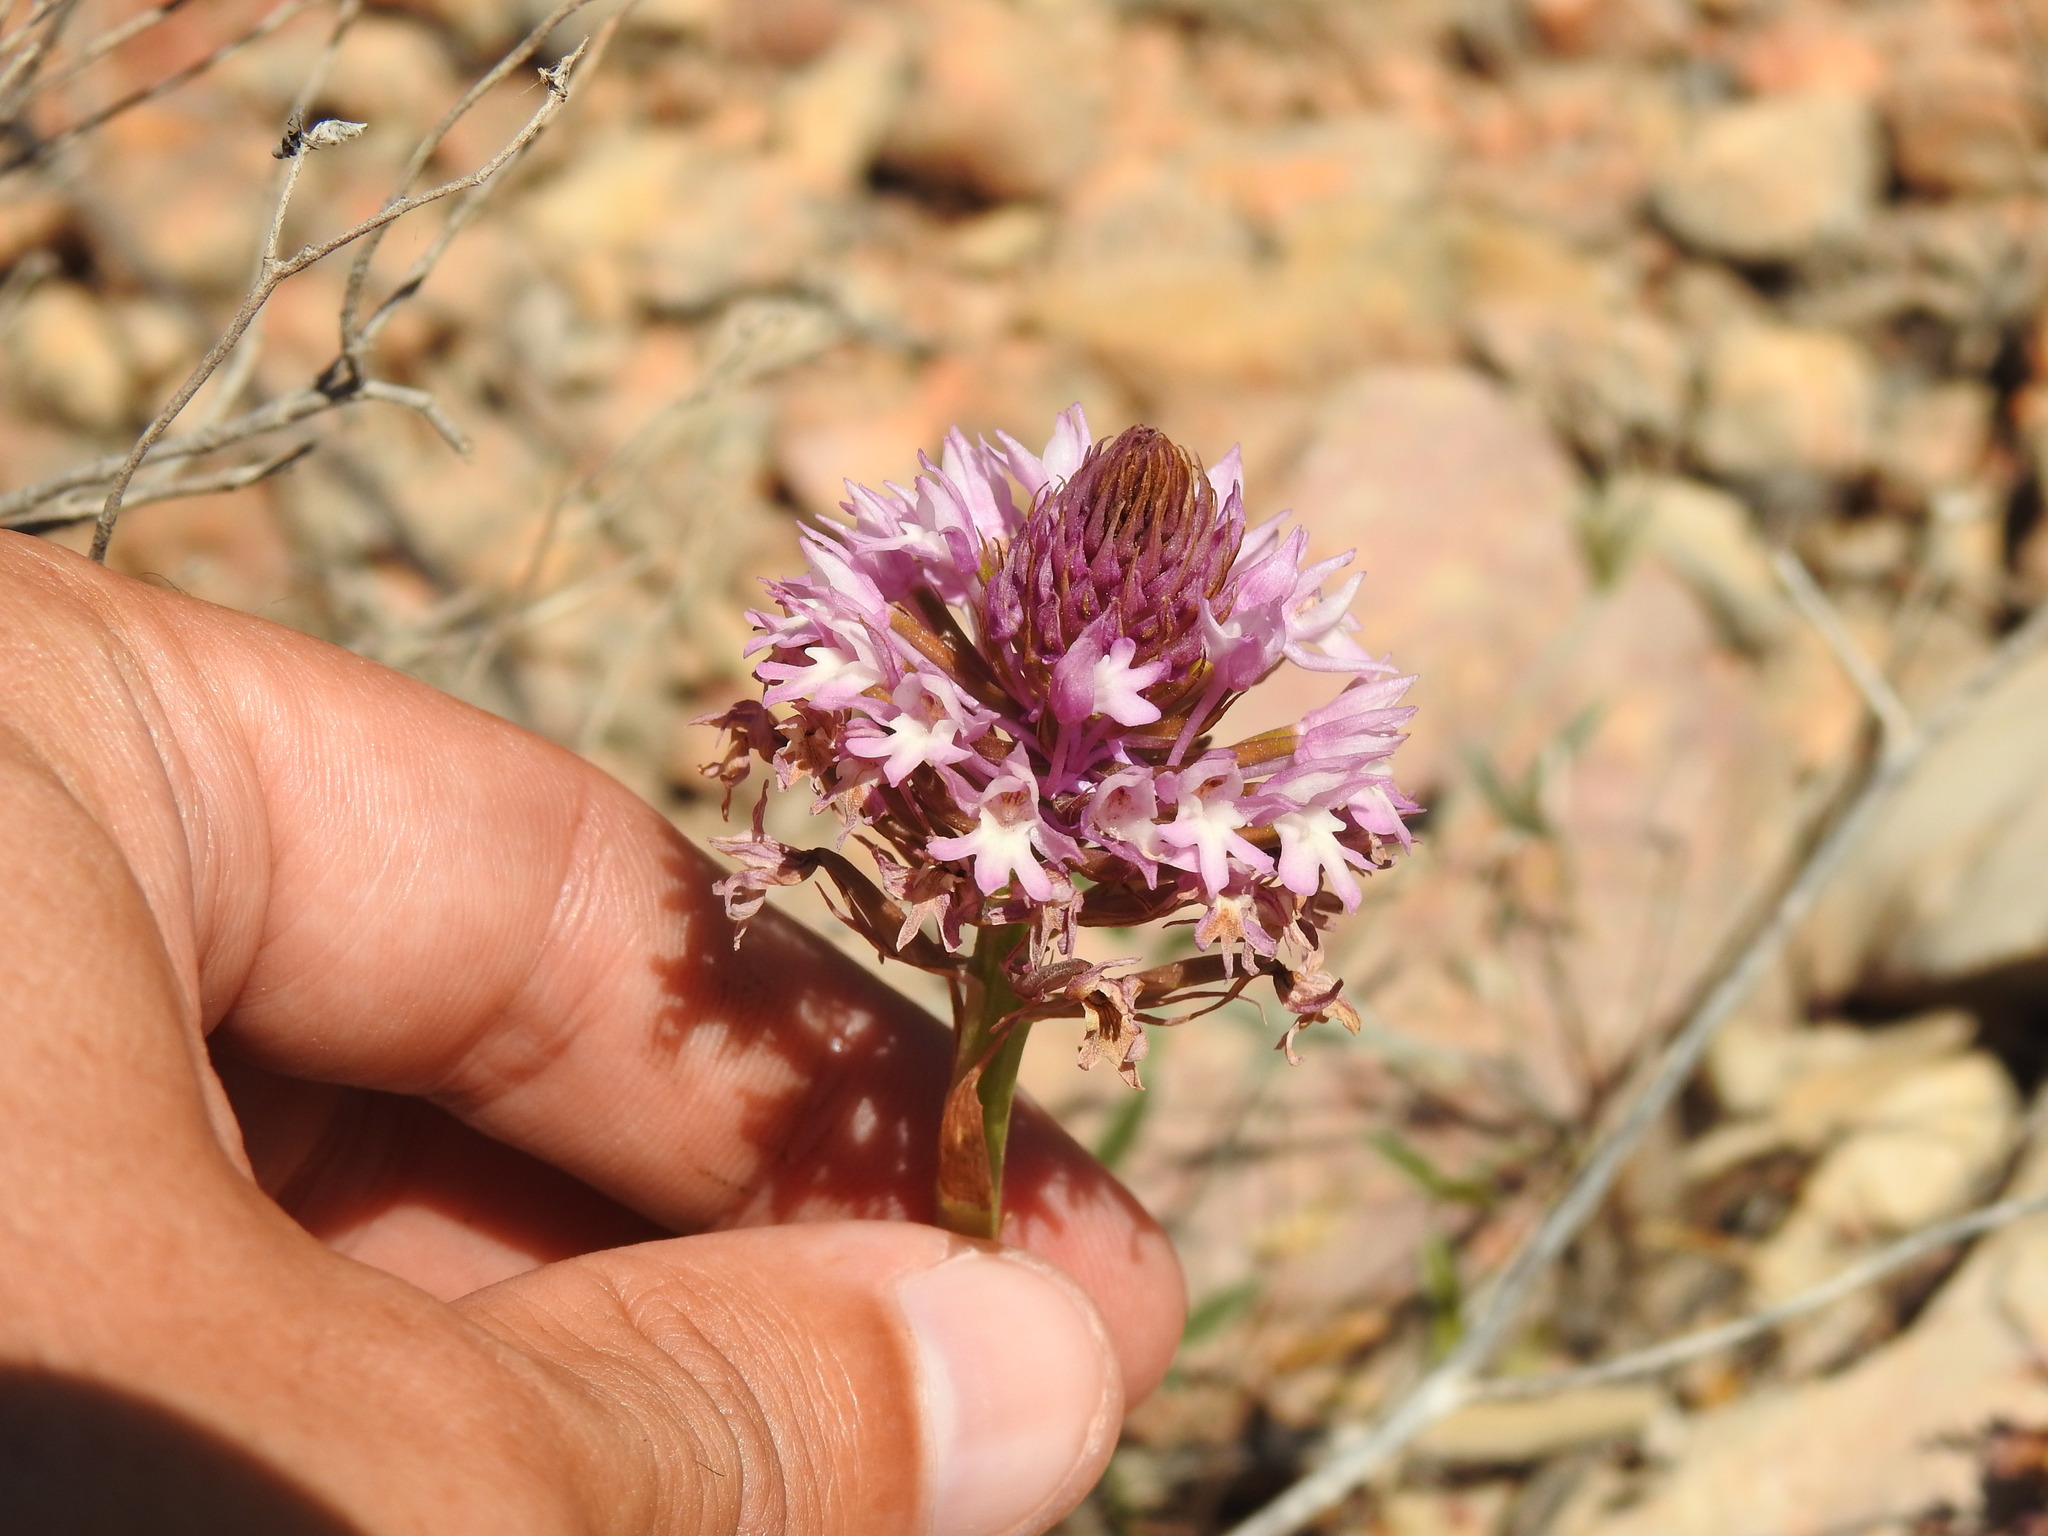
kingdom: Plantae
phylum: Tracheophyta
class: Liliopsida
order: Asparagales
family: Orchidaceae
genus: Anacamptis
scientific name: Anacamptis pyramidalis
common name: Pyramidal orchid
